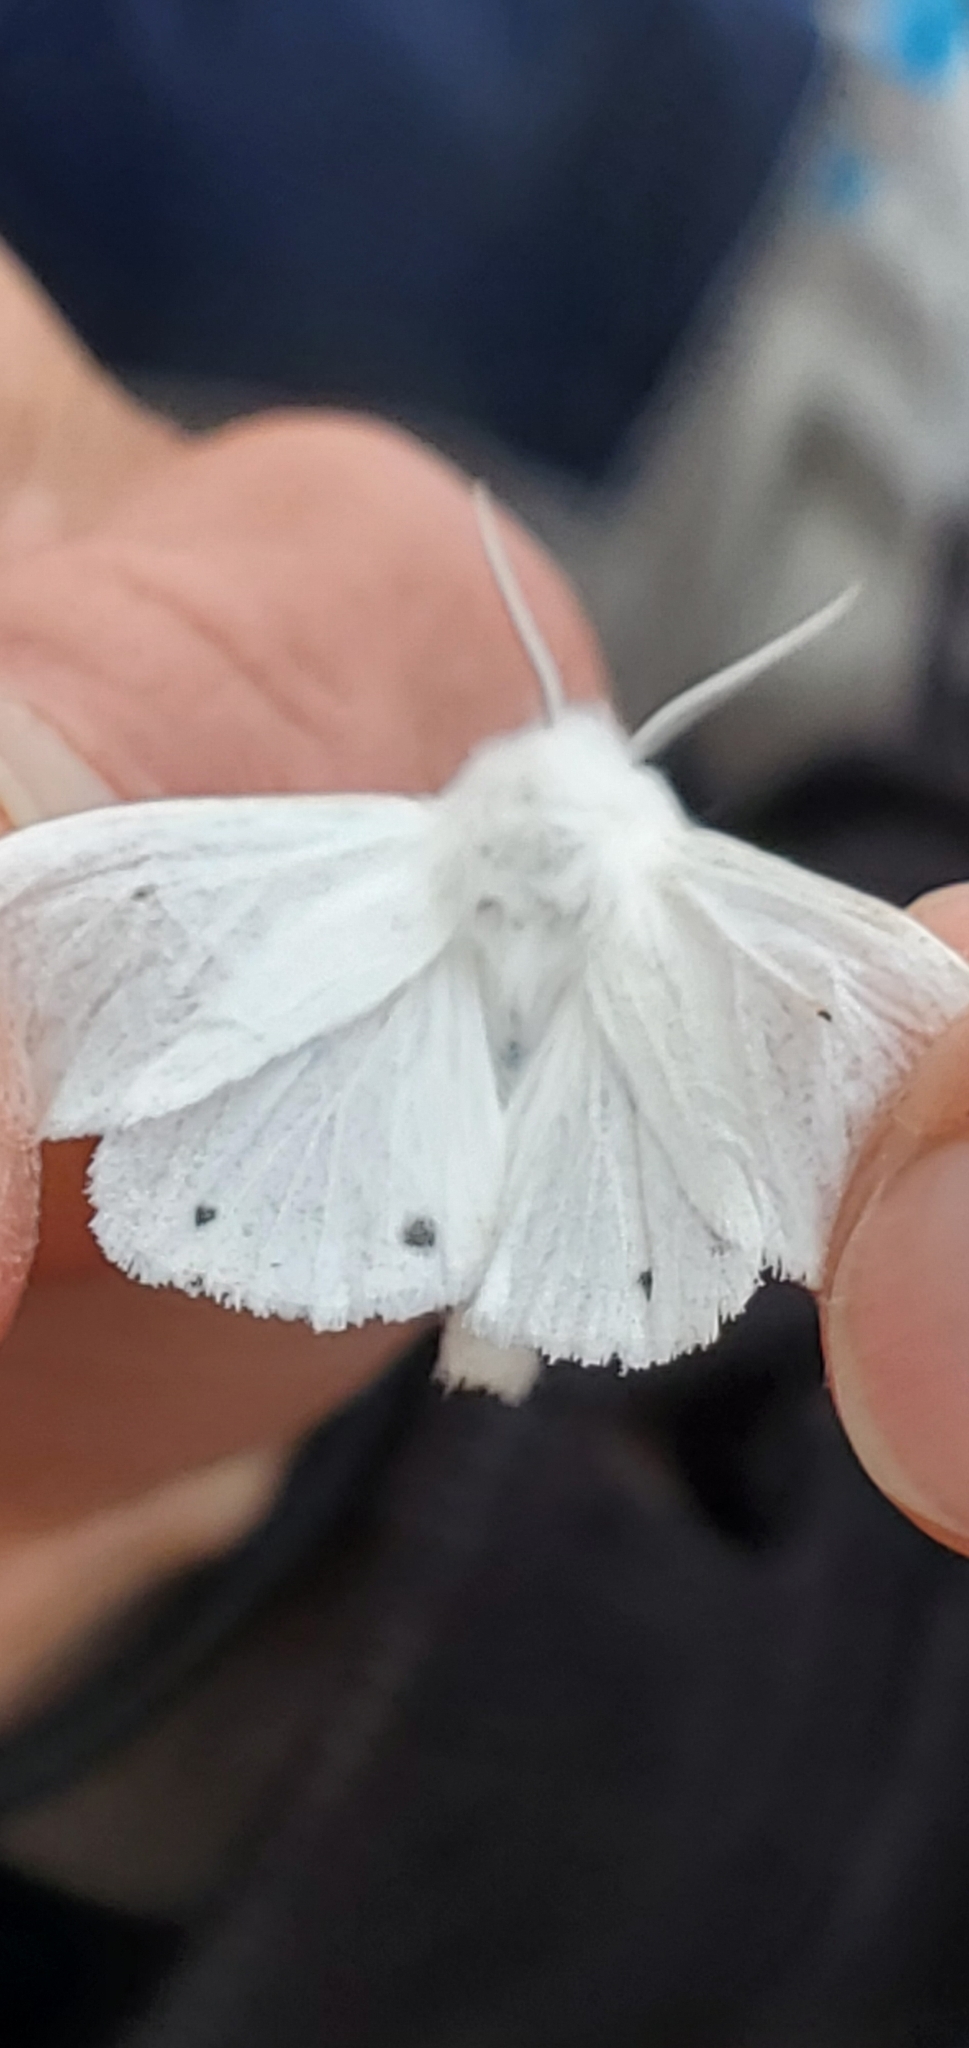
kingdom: Animalia
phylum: Arthropoda
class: Insecta
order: Lepidoptera
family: Erebidae
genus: Spilosoma
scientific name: Spilosoma virginica
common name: Virginia tiger moth
